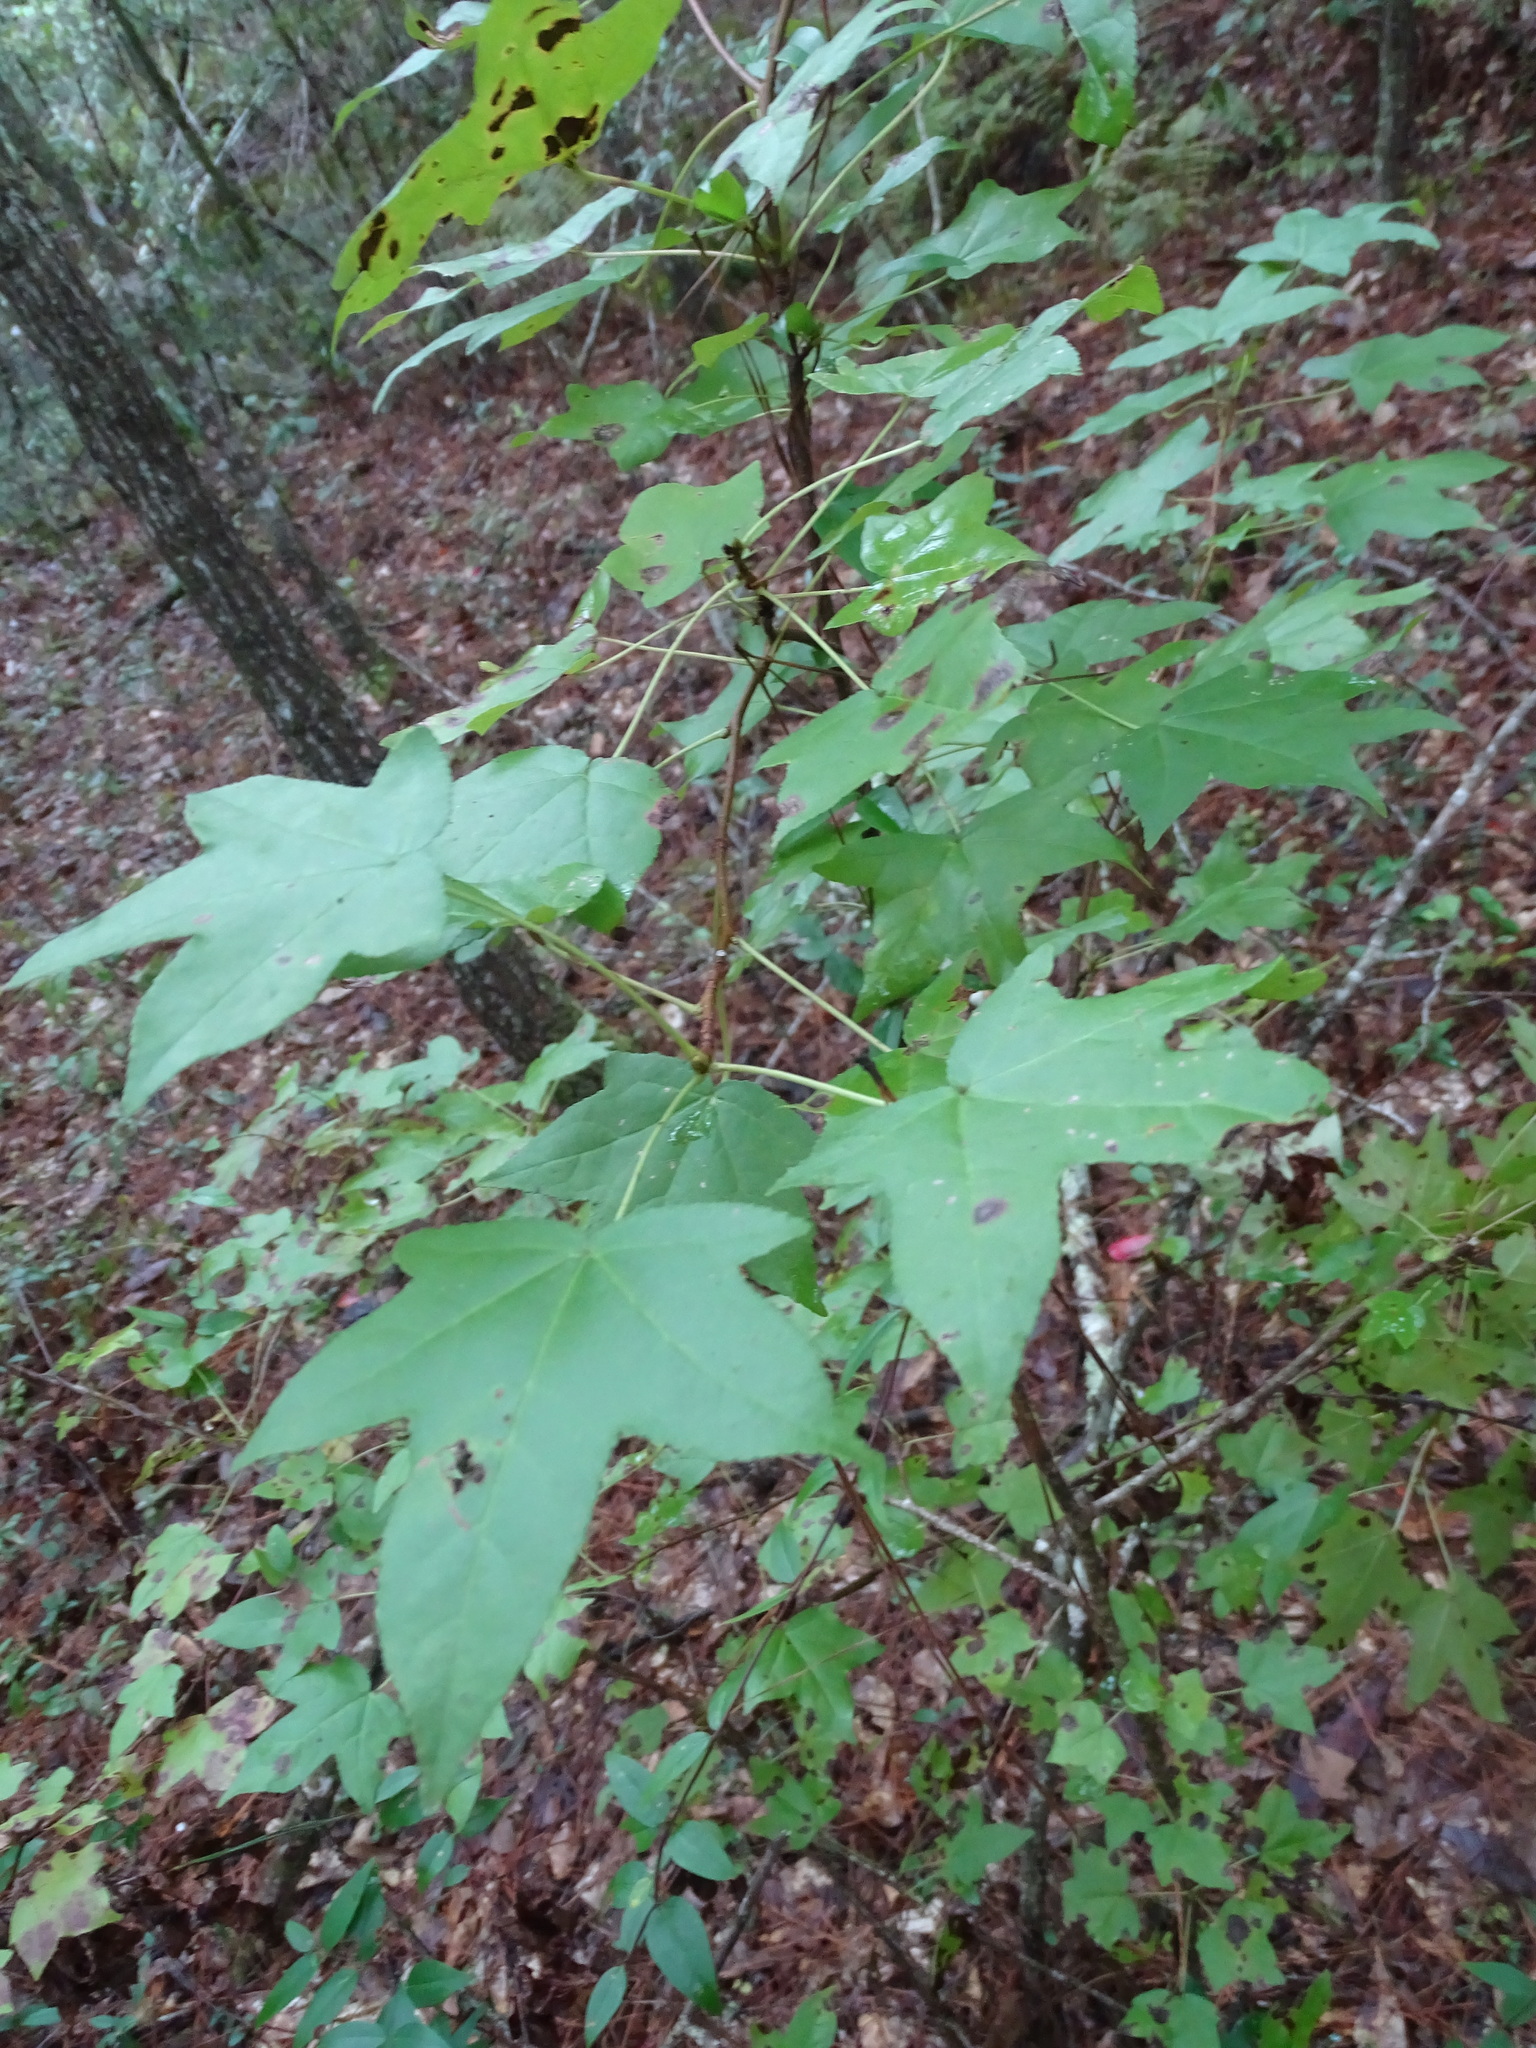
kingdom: Plantae
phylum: Tracheophyta
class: Magnoliopsida
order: Saxifragales
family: Altingiaceae
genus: Liquidambar
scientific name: Liquidambar styraciflua
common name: Sweet gum
